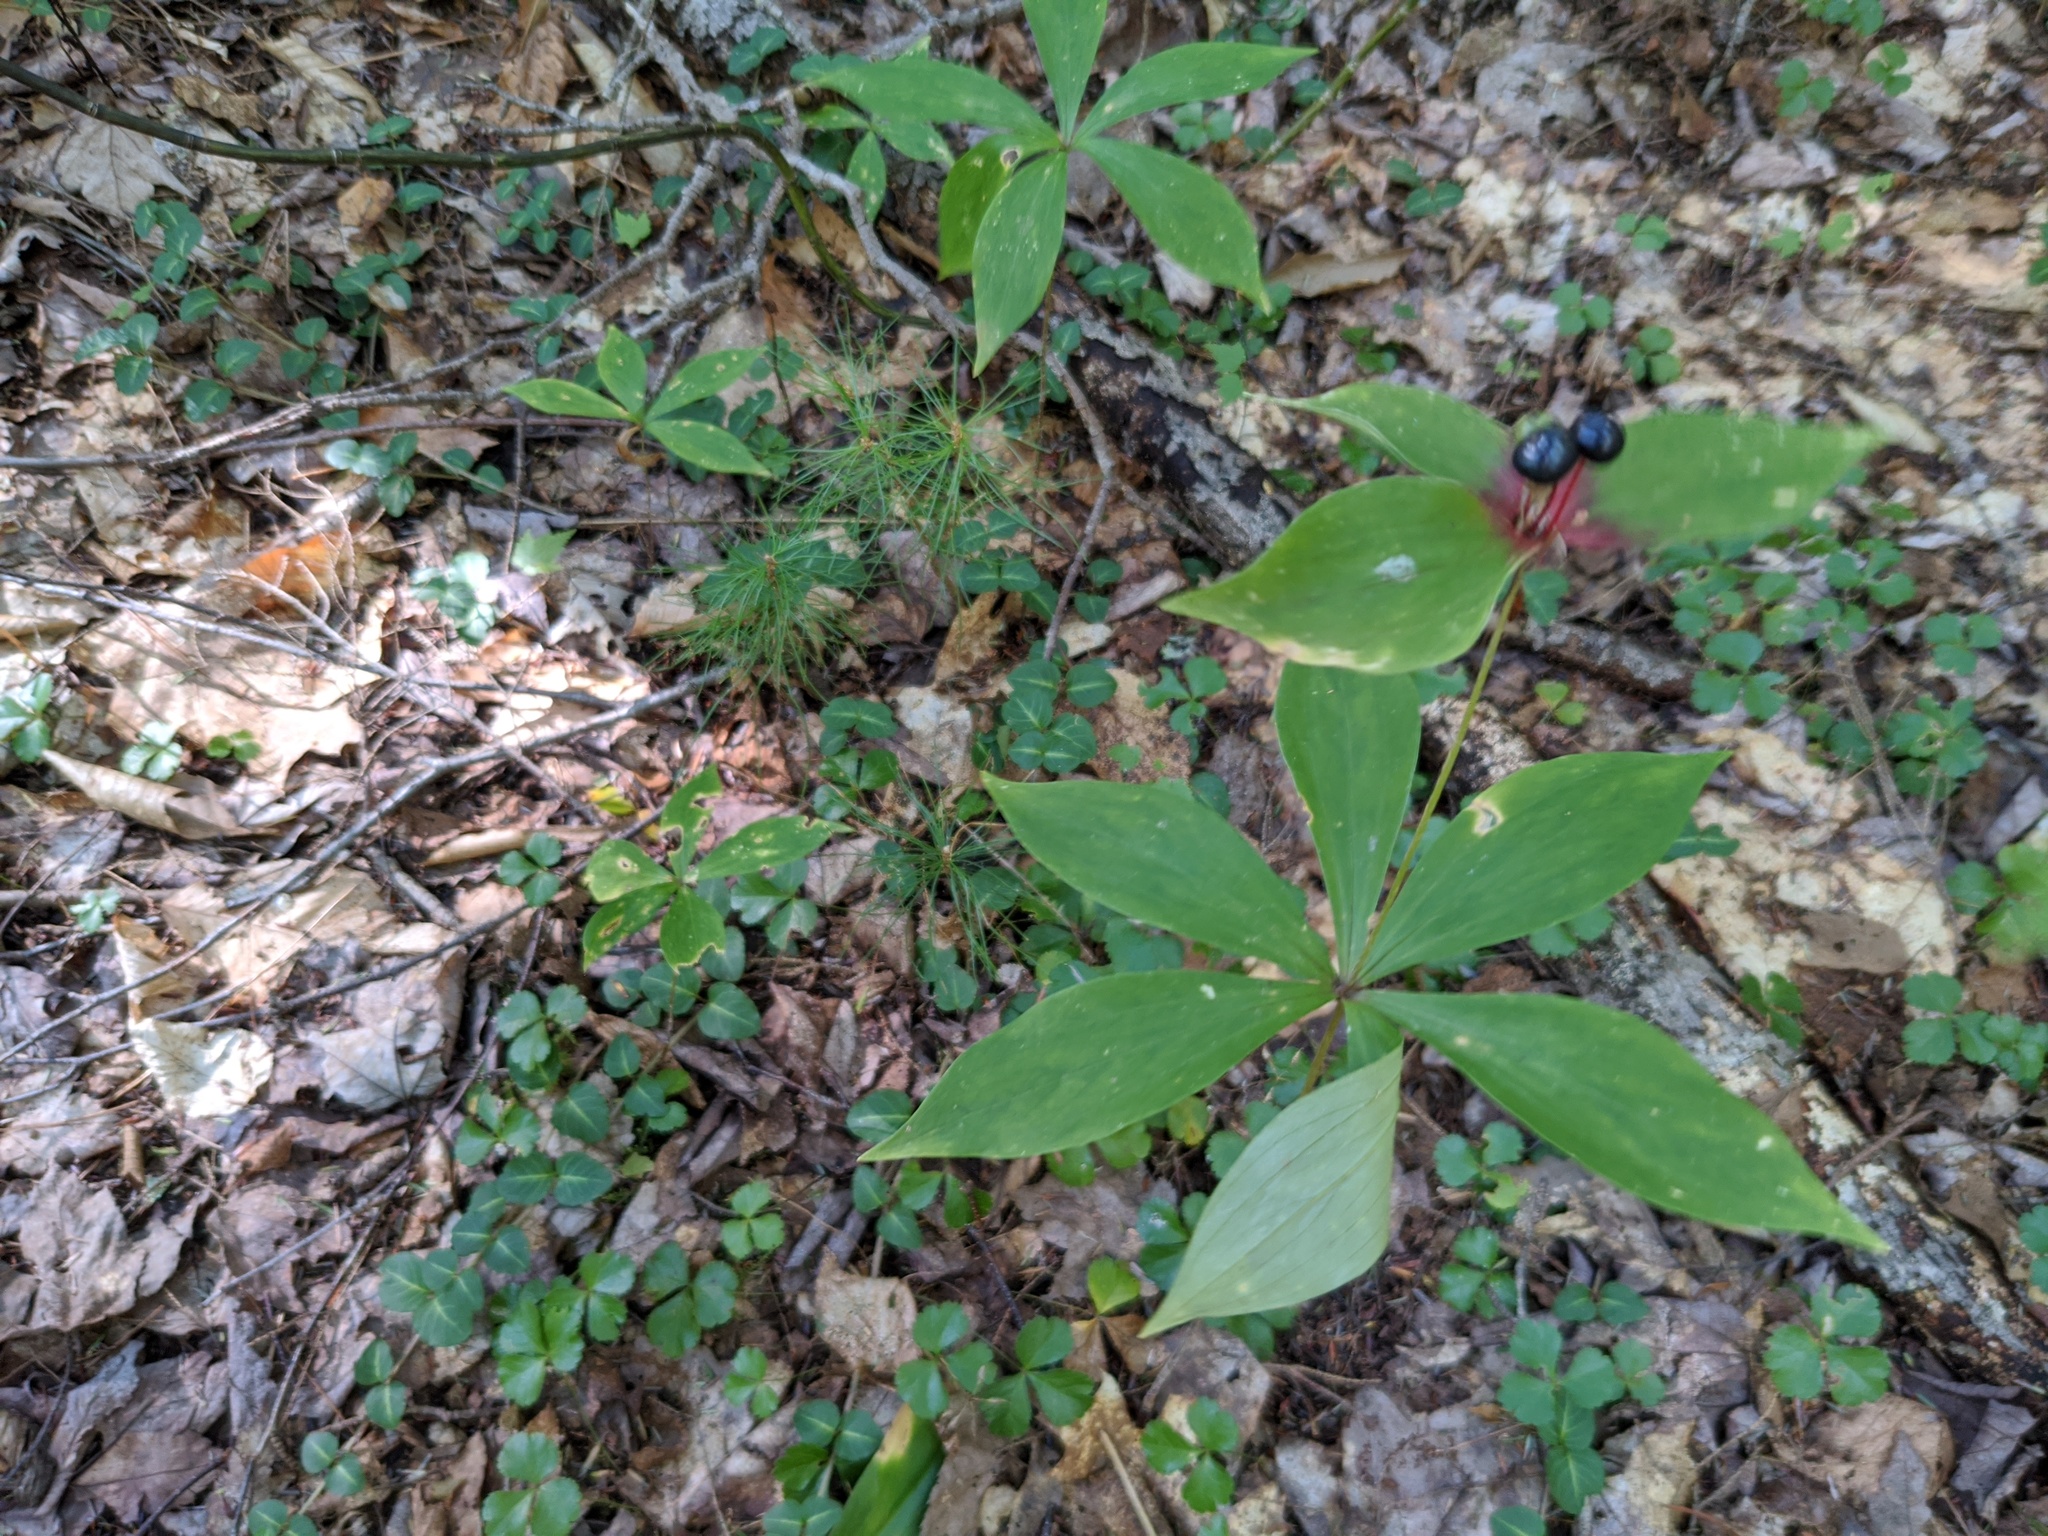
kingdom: Plantae
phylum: Tracheophyta
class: Liliopsida
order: Liliales
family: Liliaceae
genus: Medeola
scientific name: Medeola virginiana
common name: Indian cucumber-root
